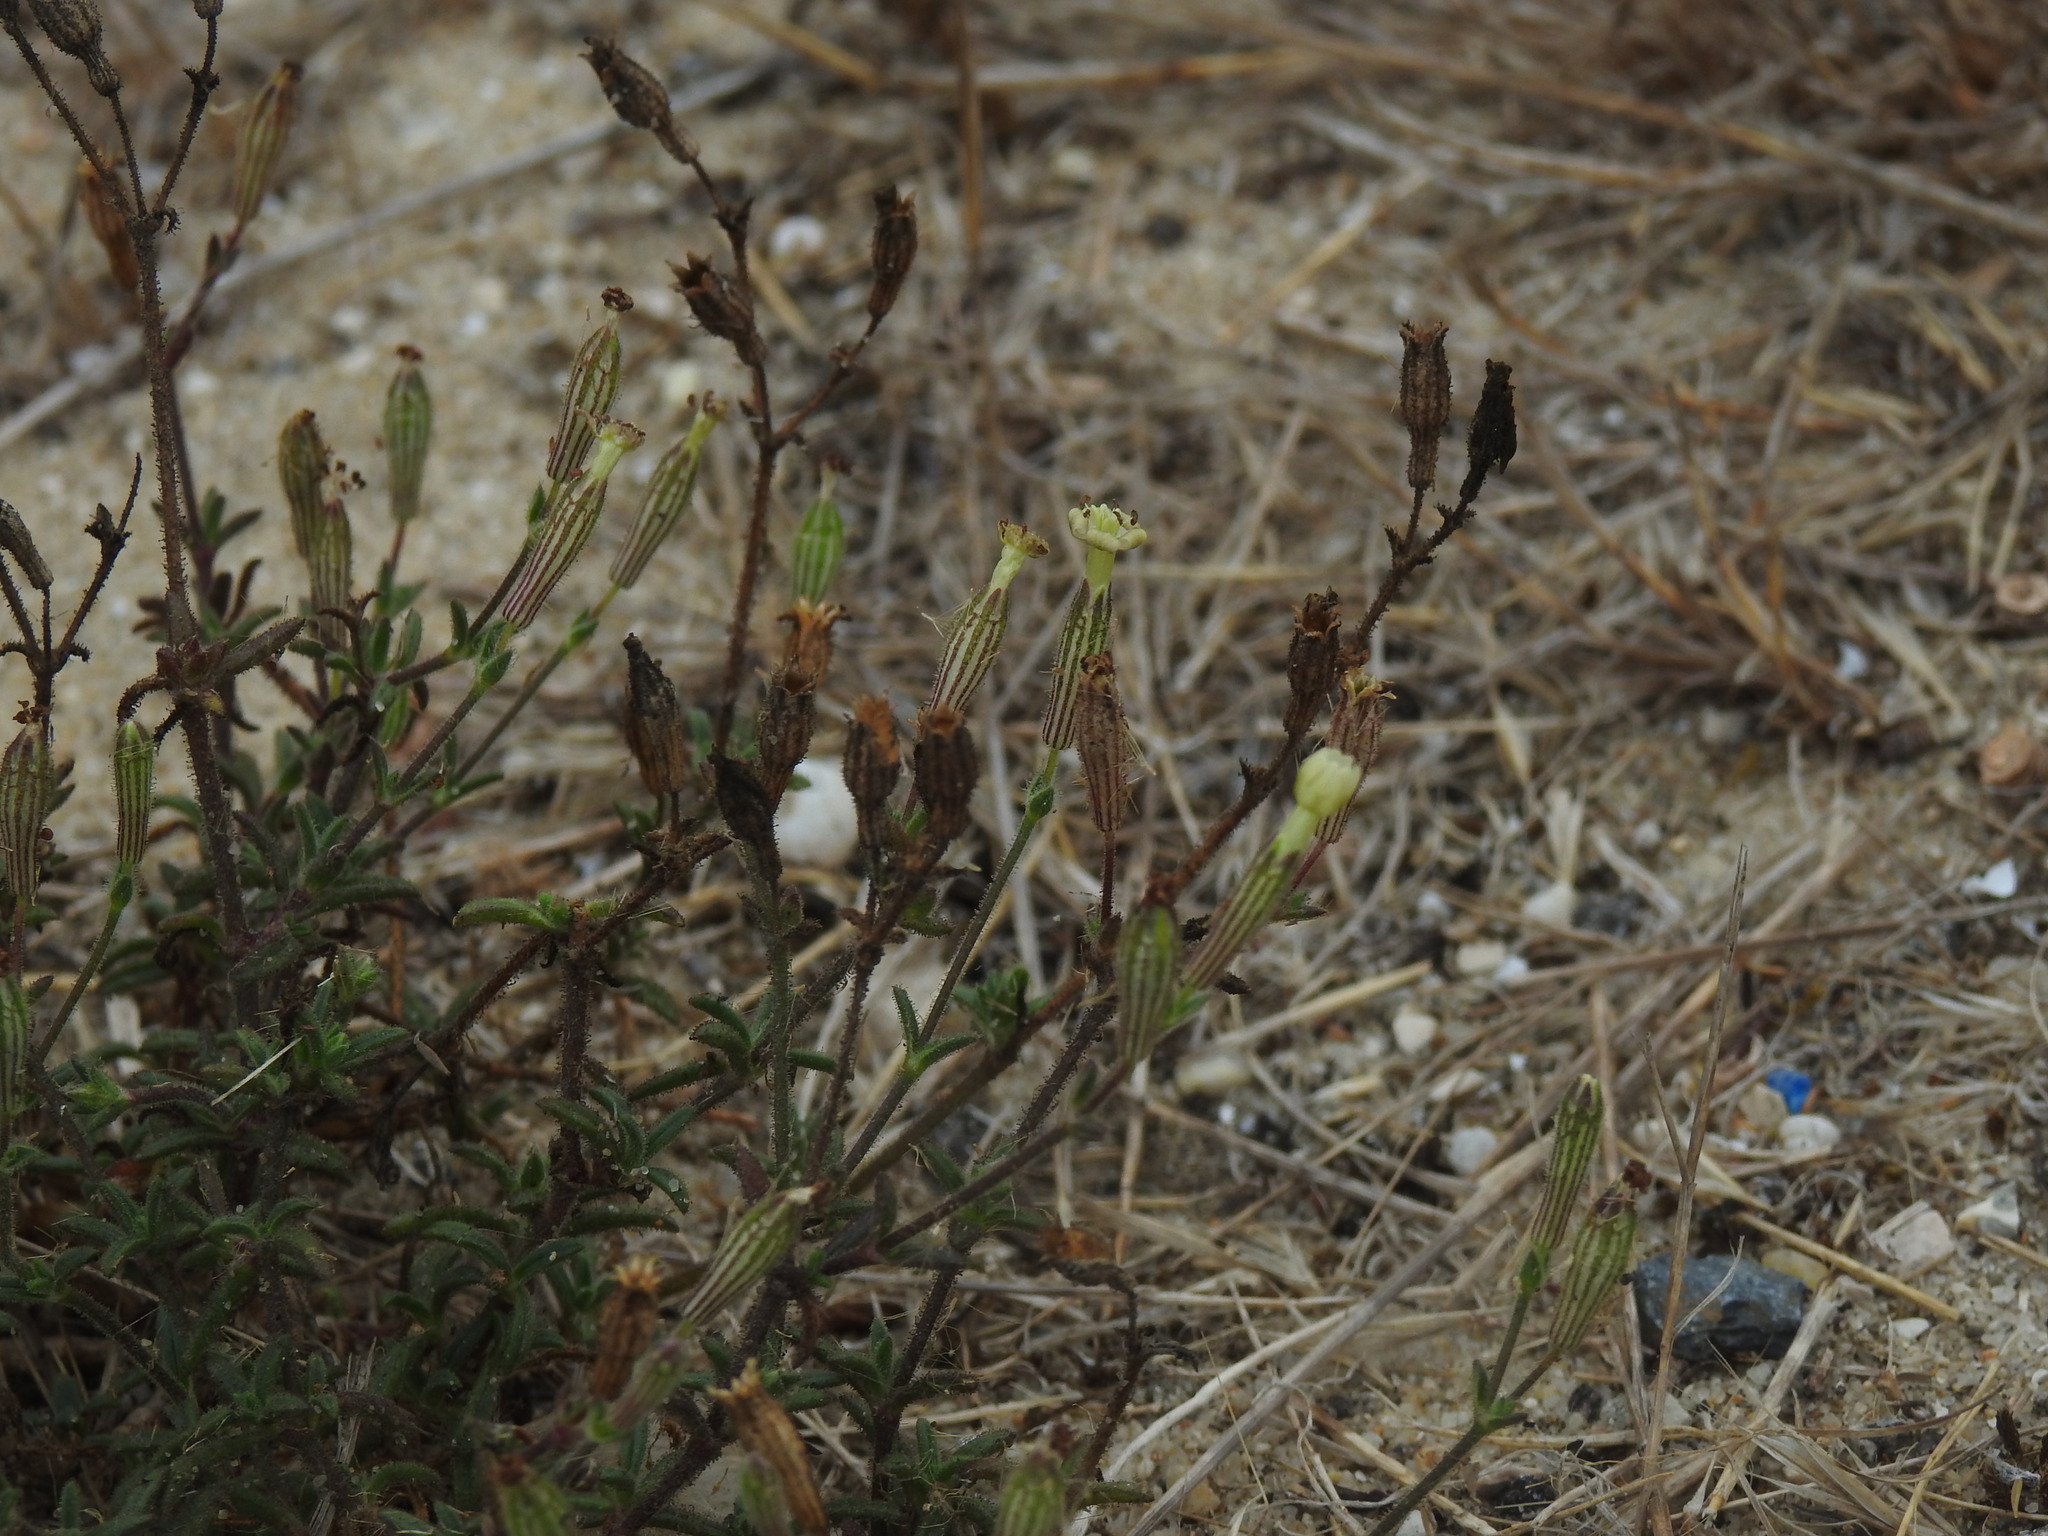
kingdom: Plantae
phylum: Tracheophyta
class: Magnoliopsida
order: Caryophyllales
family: Caryophyllaceae
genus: Silene
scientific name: Silene nicaeensis
